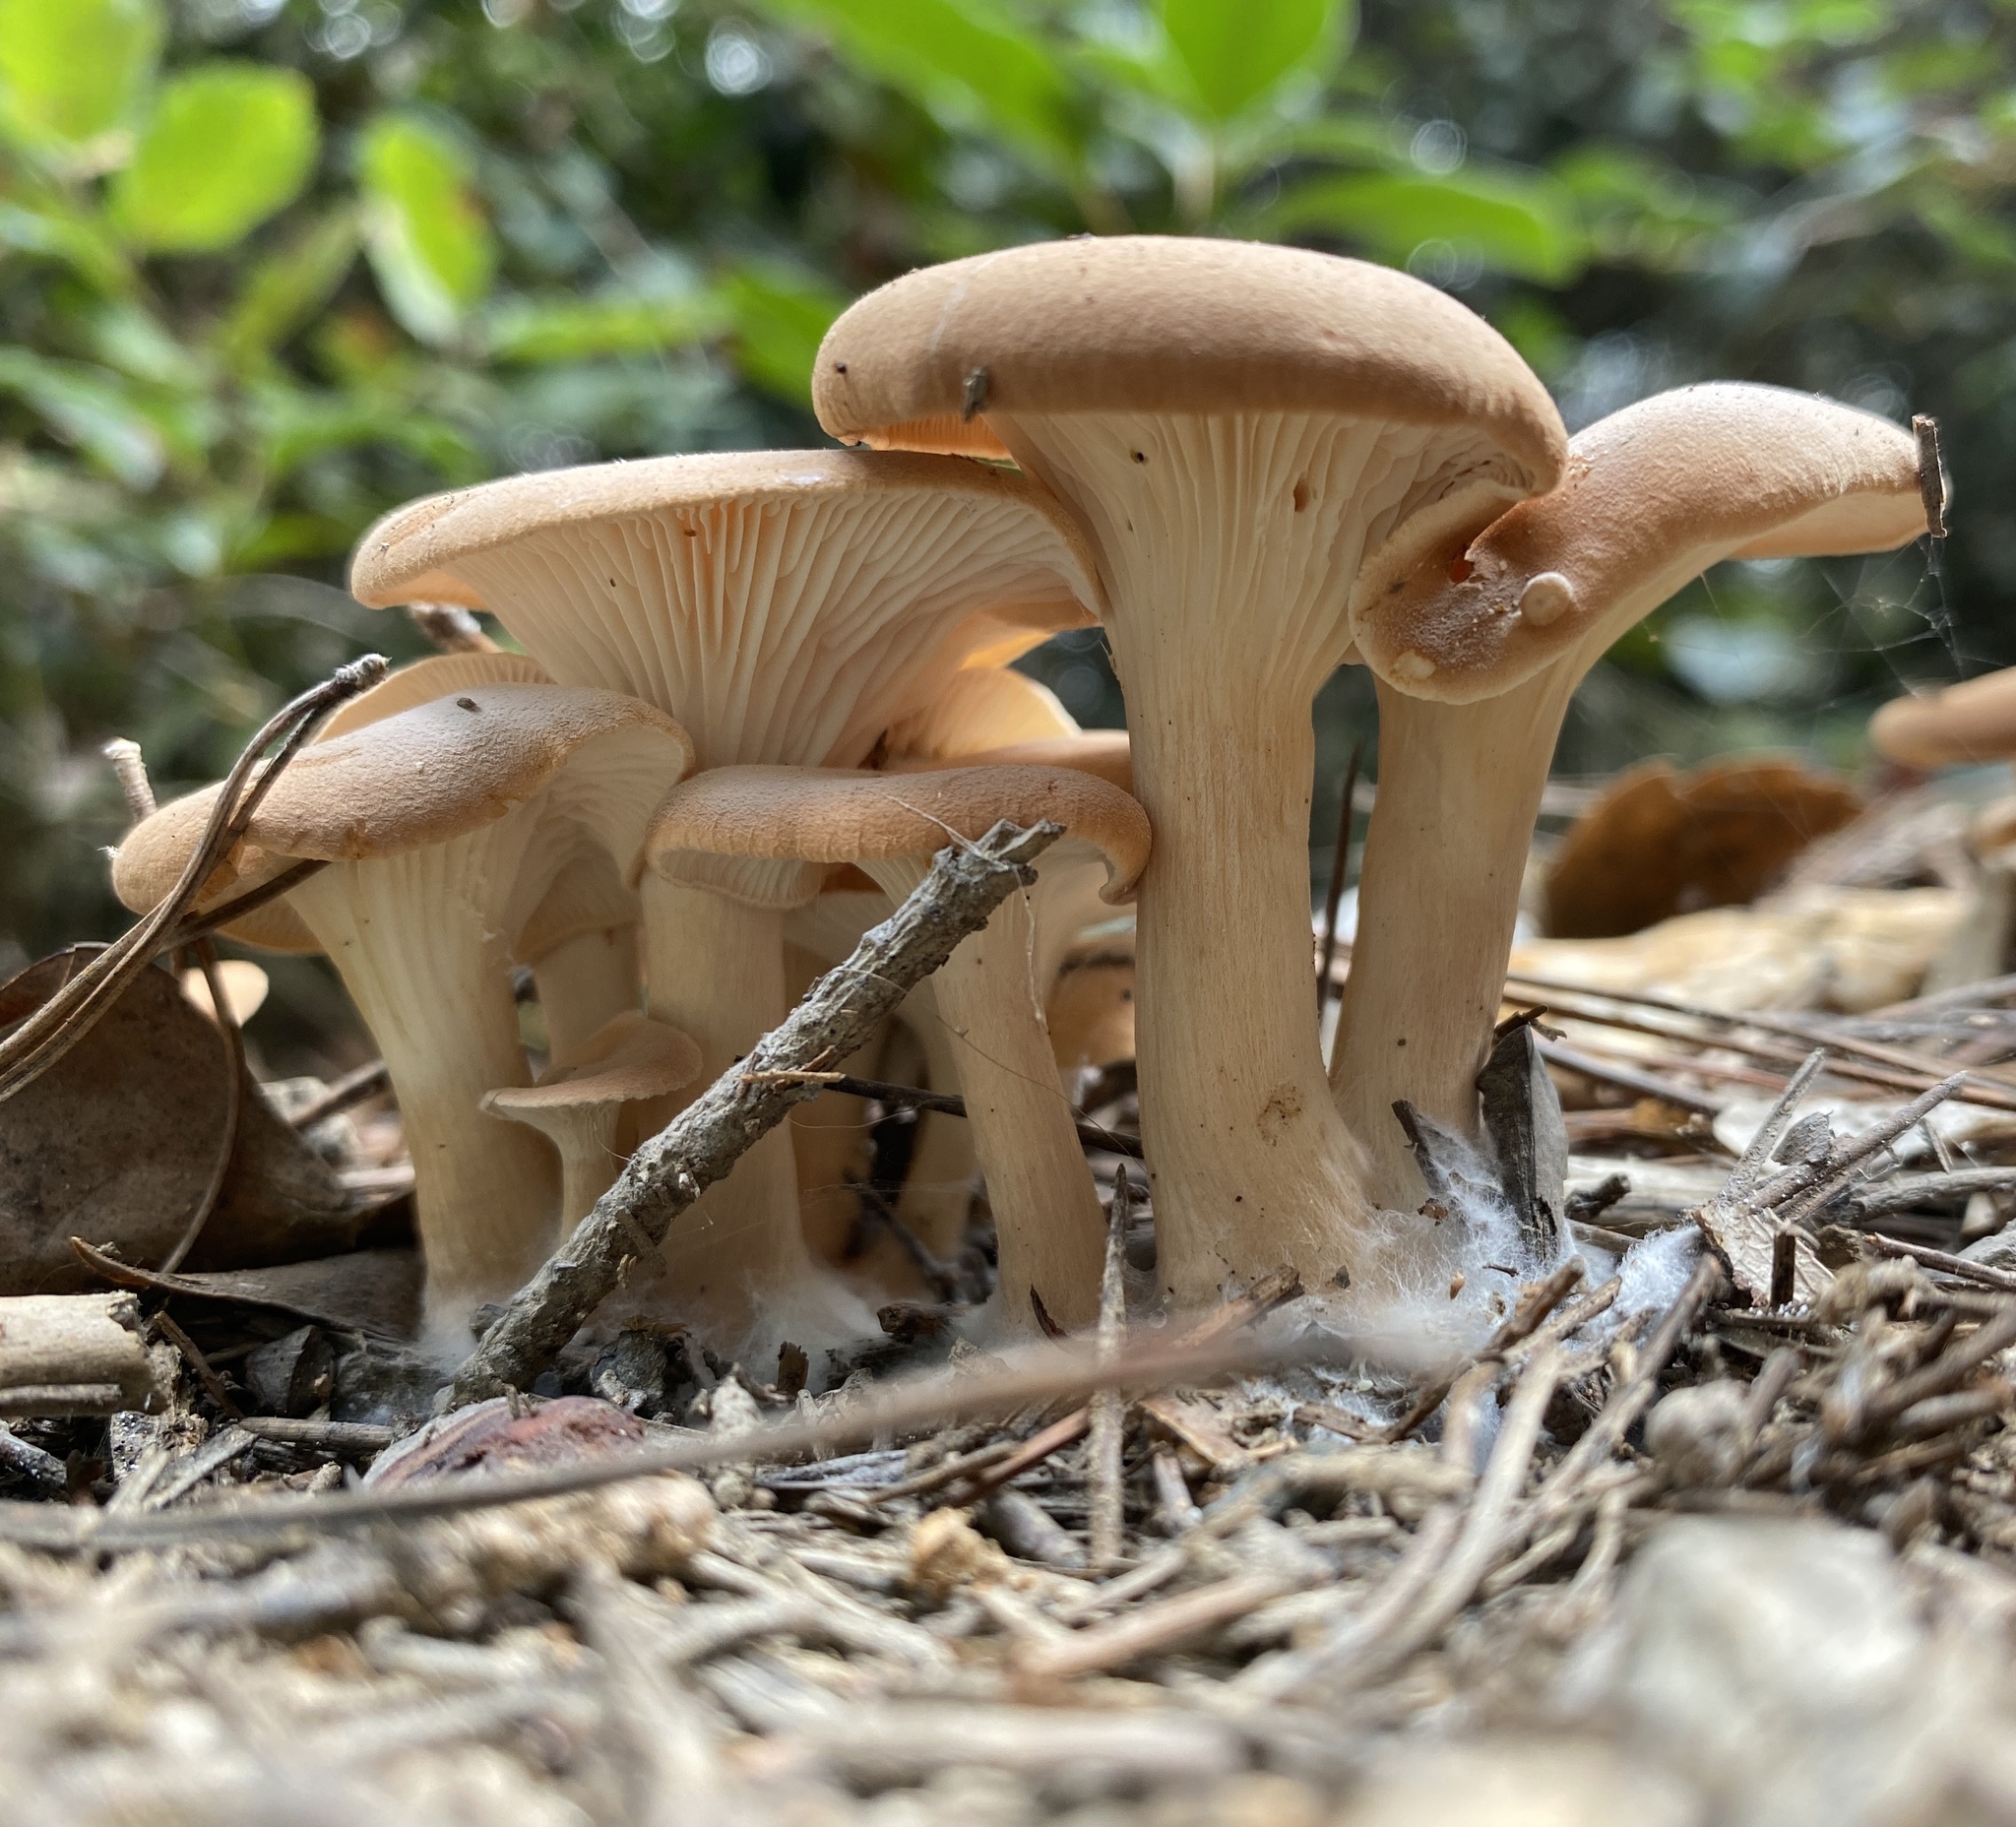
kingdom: Fungi
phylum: Basidiomycota
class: Agaricomycetes
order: Agaricales
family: Tricholomataceae
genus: Paralepista
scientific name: Paralepista flaccida
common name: Tawny funnel cap
